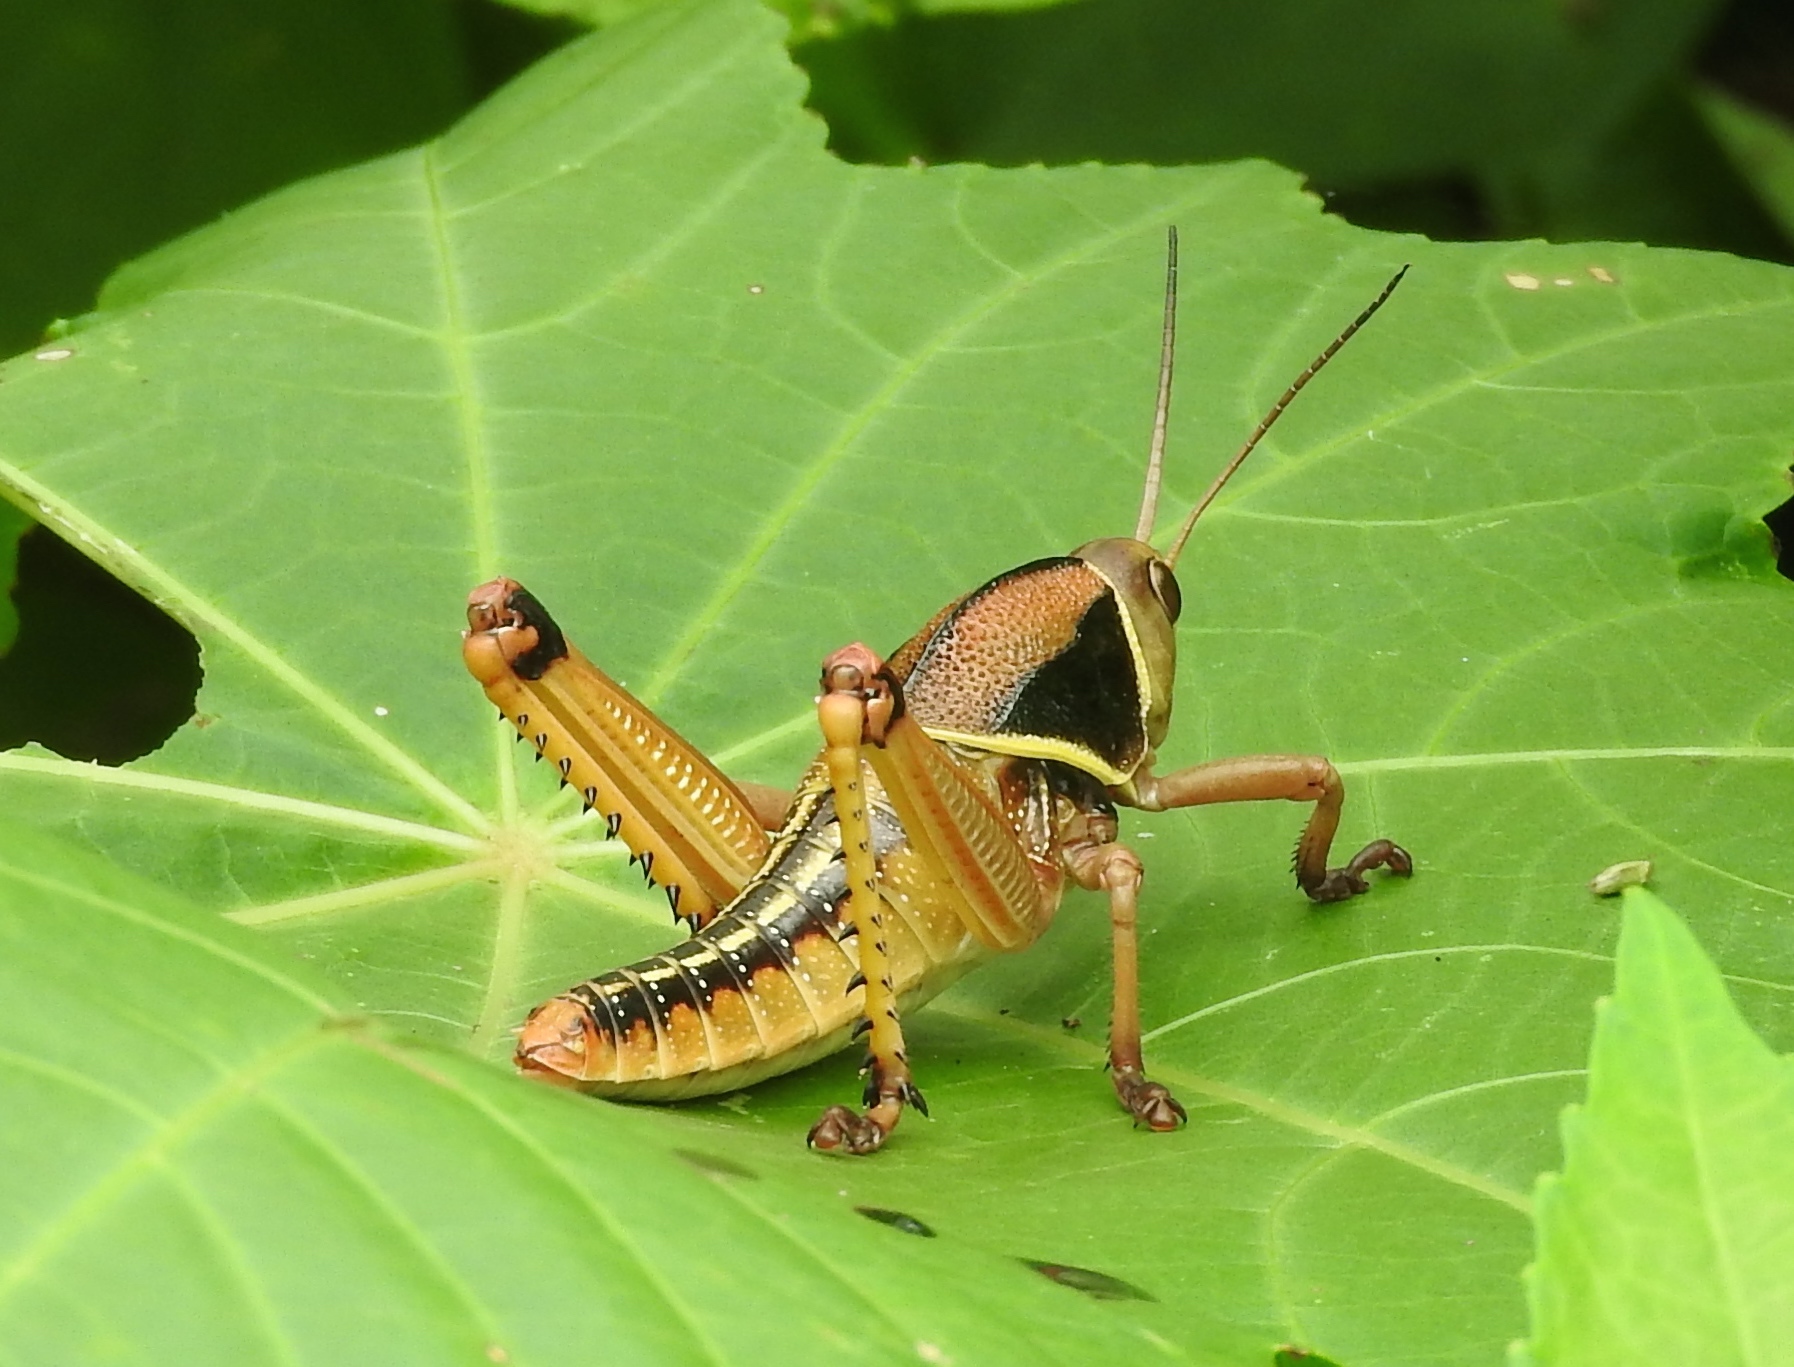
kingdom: Animalia
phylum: Arthropoda
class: Insecta
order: Orthoptera
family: Romaleidae
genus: Brachystola
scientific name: Brachystola
